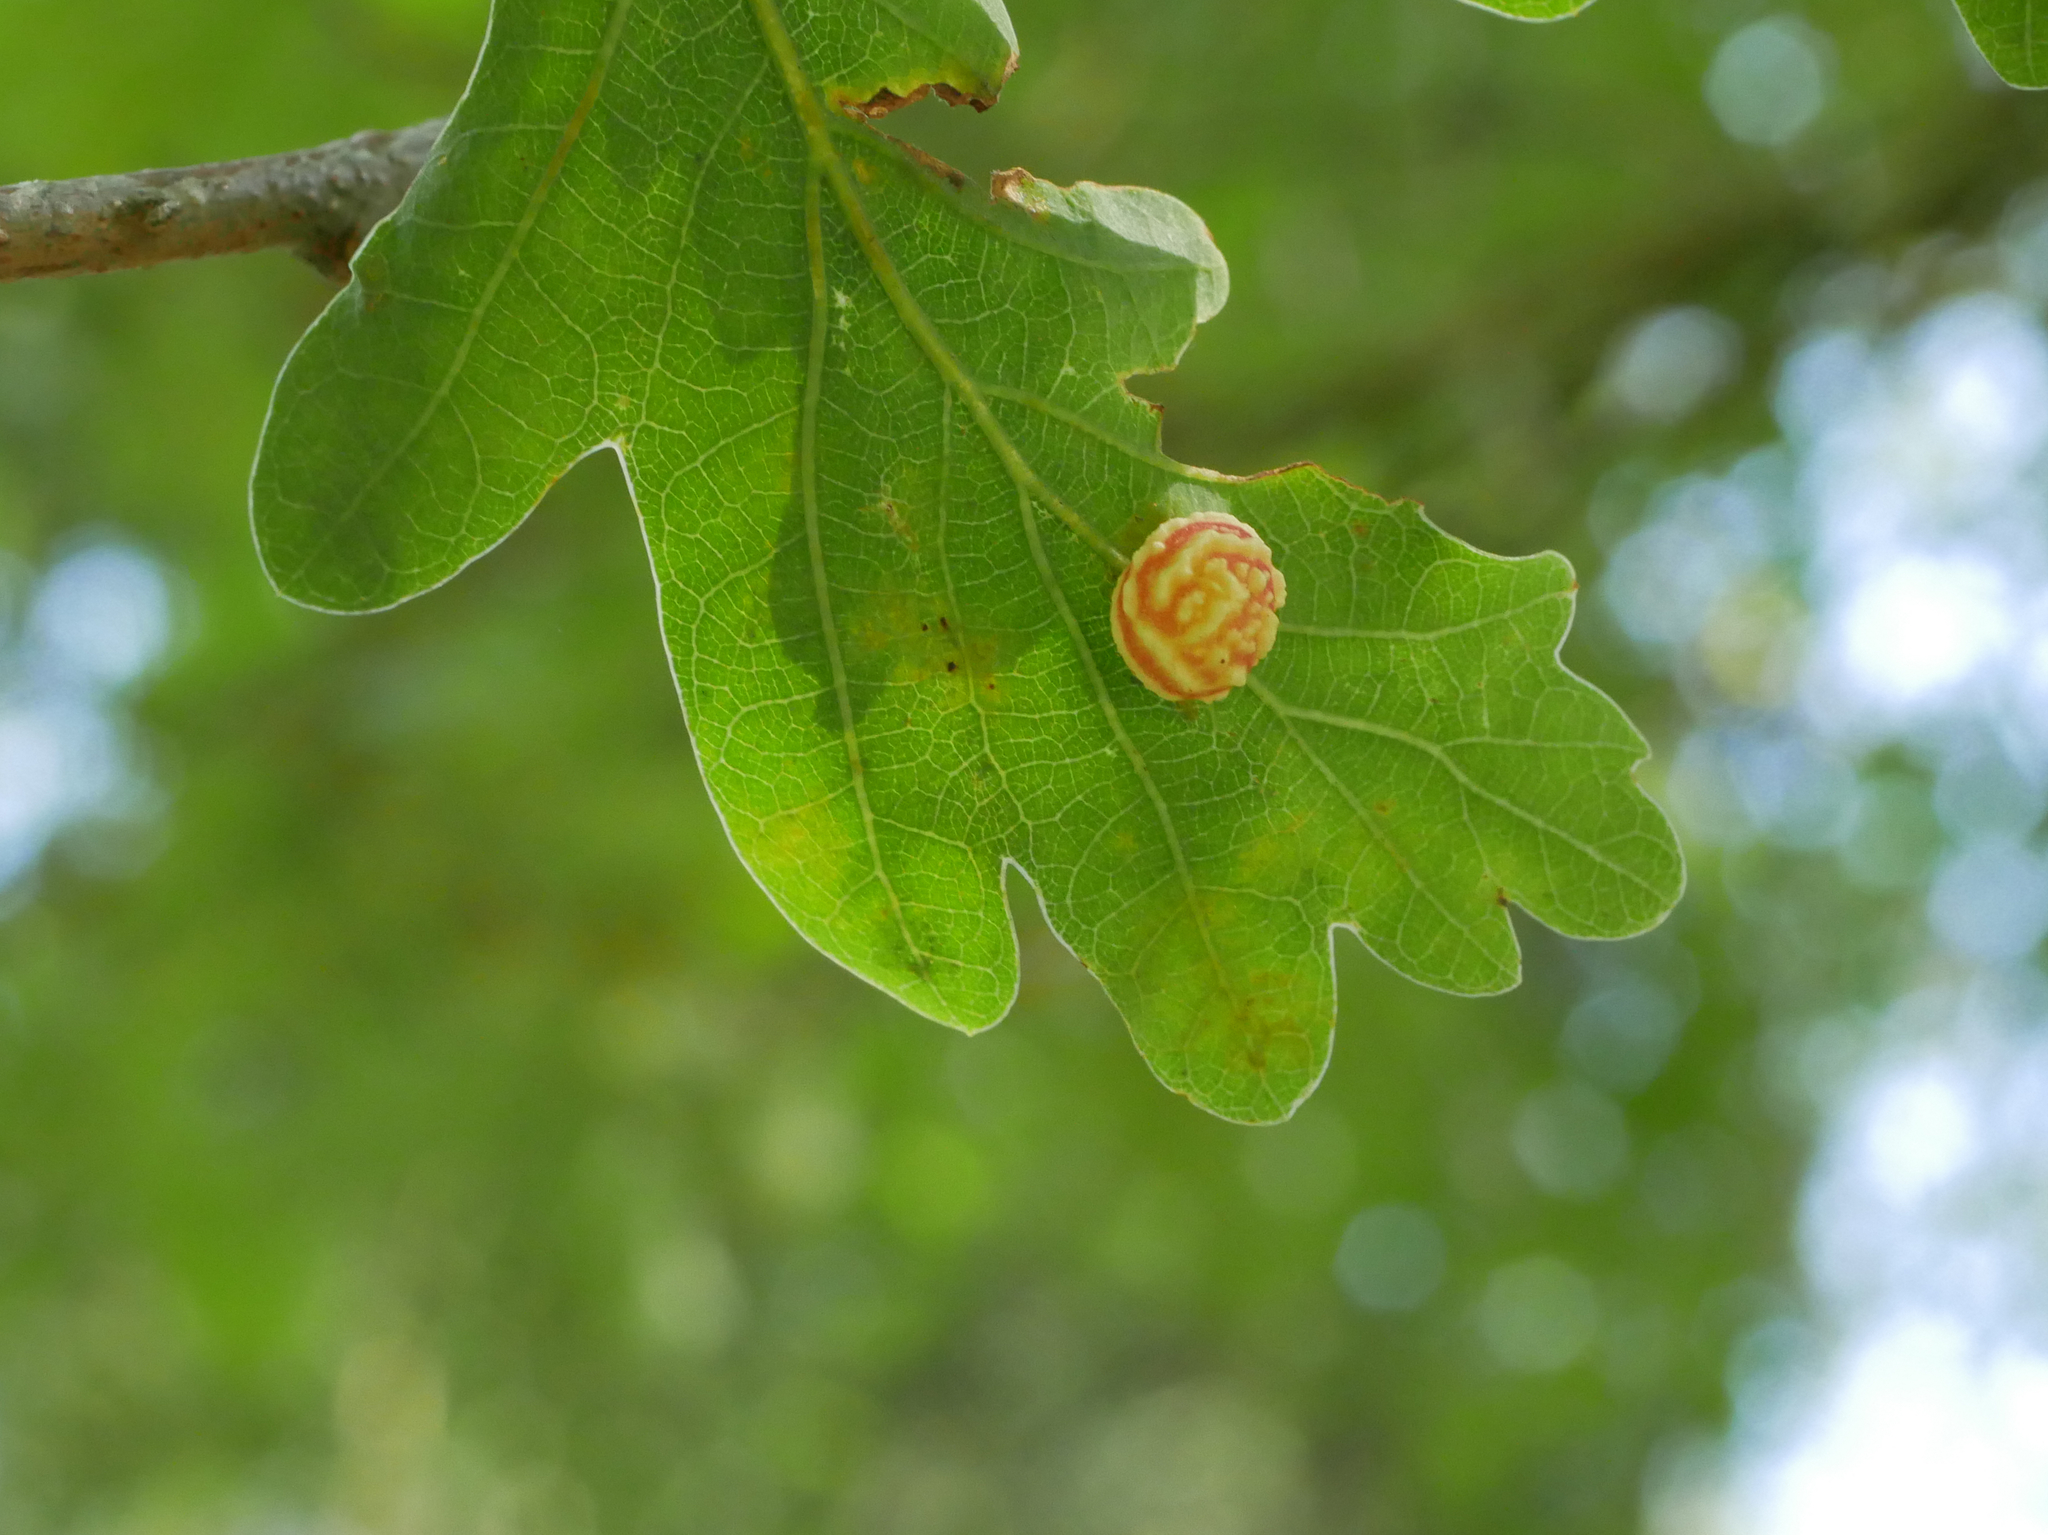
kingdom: Animalia
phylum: Arthropoda
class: Insecta
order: Hymenoptera
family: Cynipidae
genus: Cynips
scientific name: Cynips longiventris
